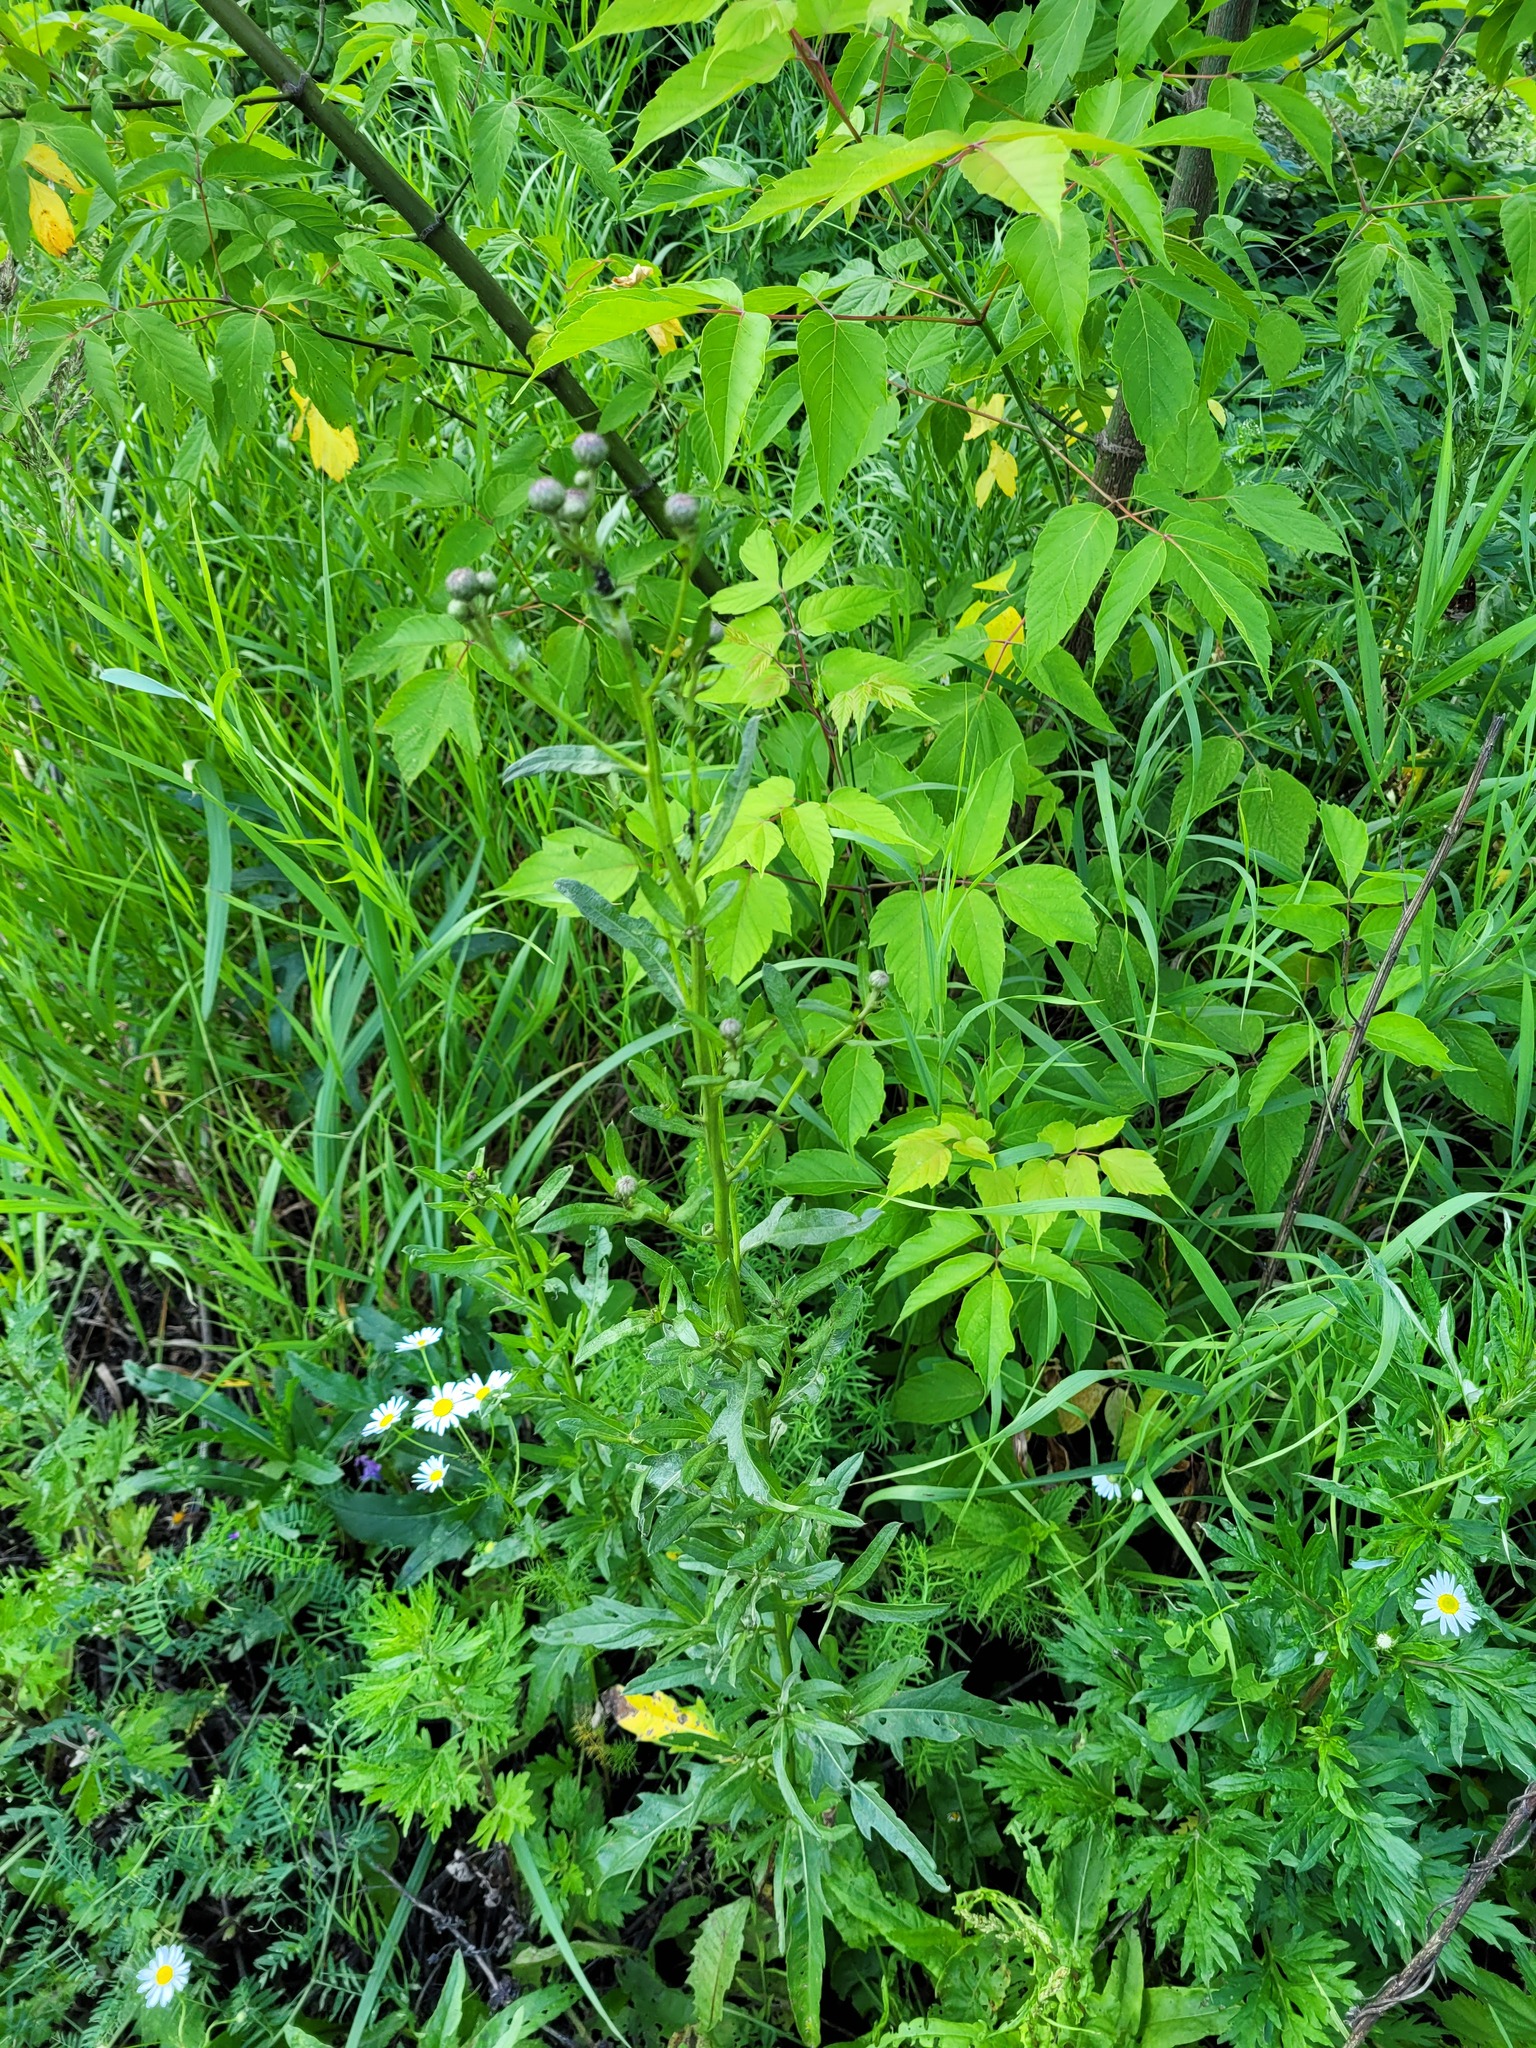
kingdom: Plantae
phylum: Tracheophyta
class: Magnoliopsida
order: Asterales
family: Asteraceae
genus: Cirsium
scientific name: Cirsium arvense
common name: Creeping thistle
